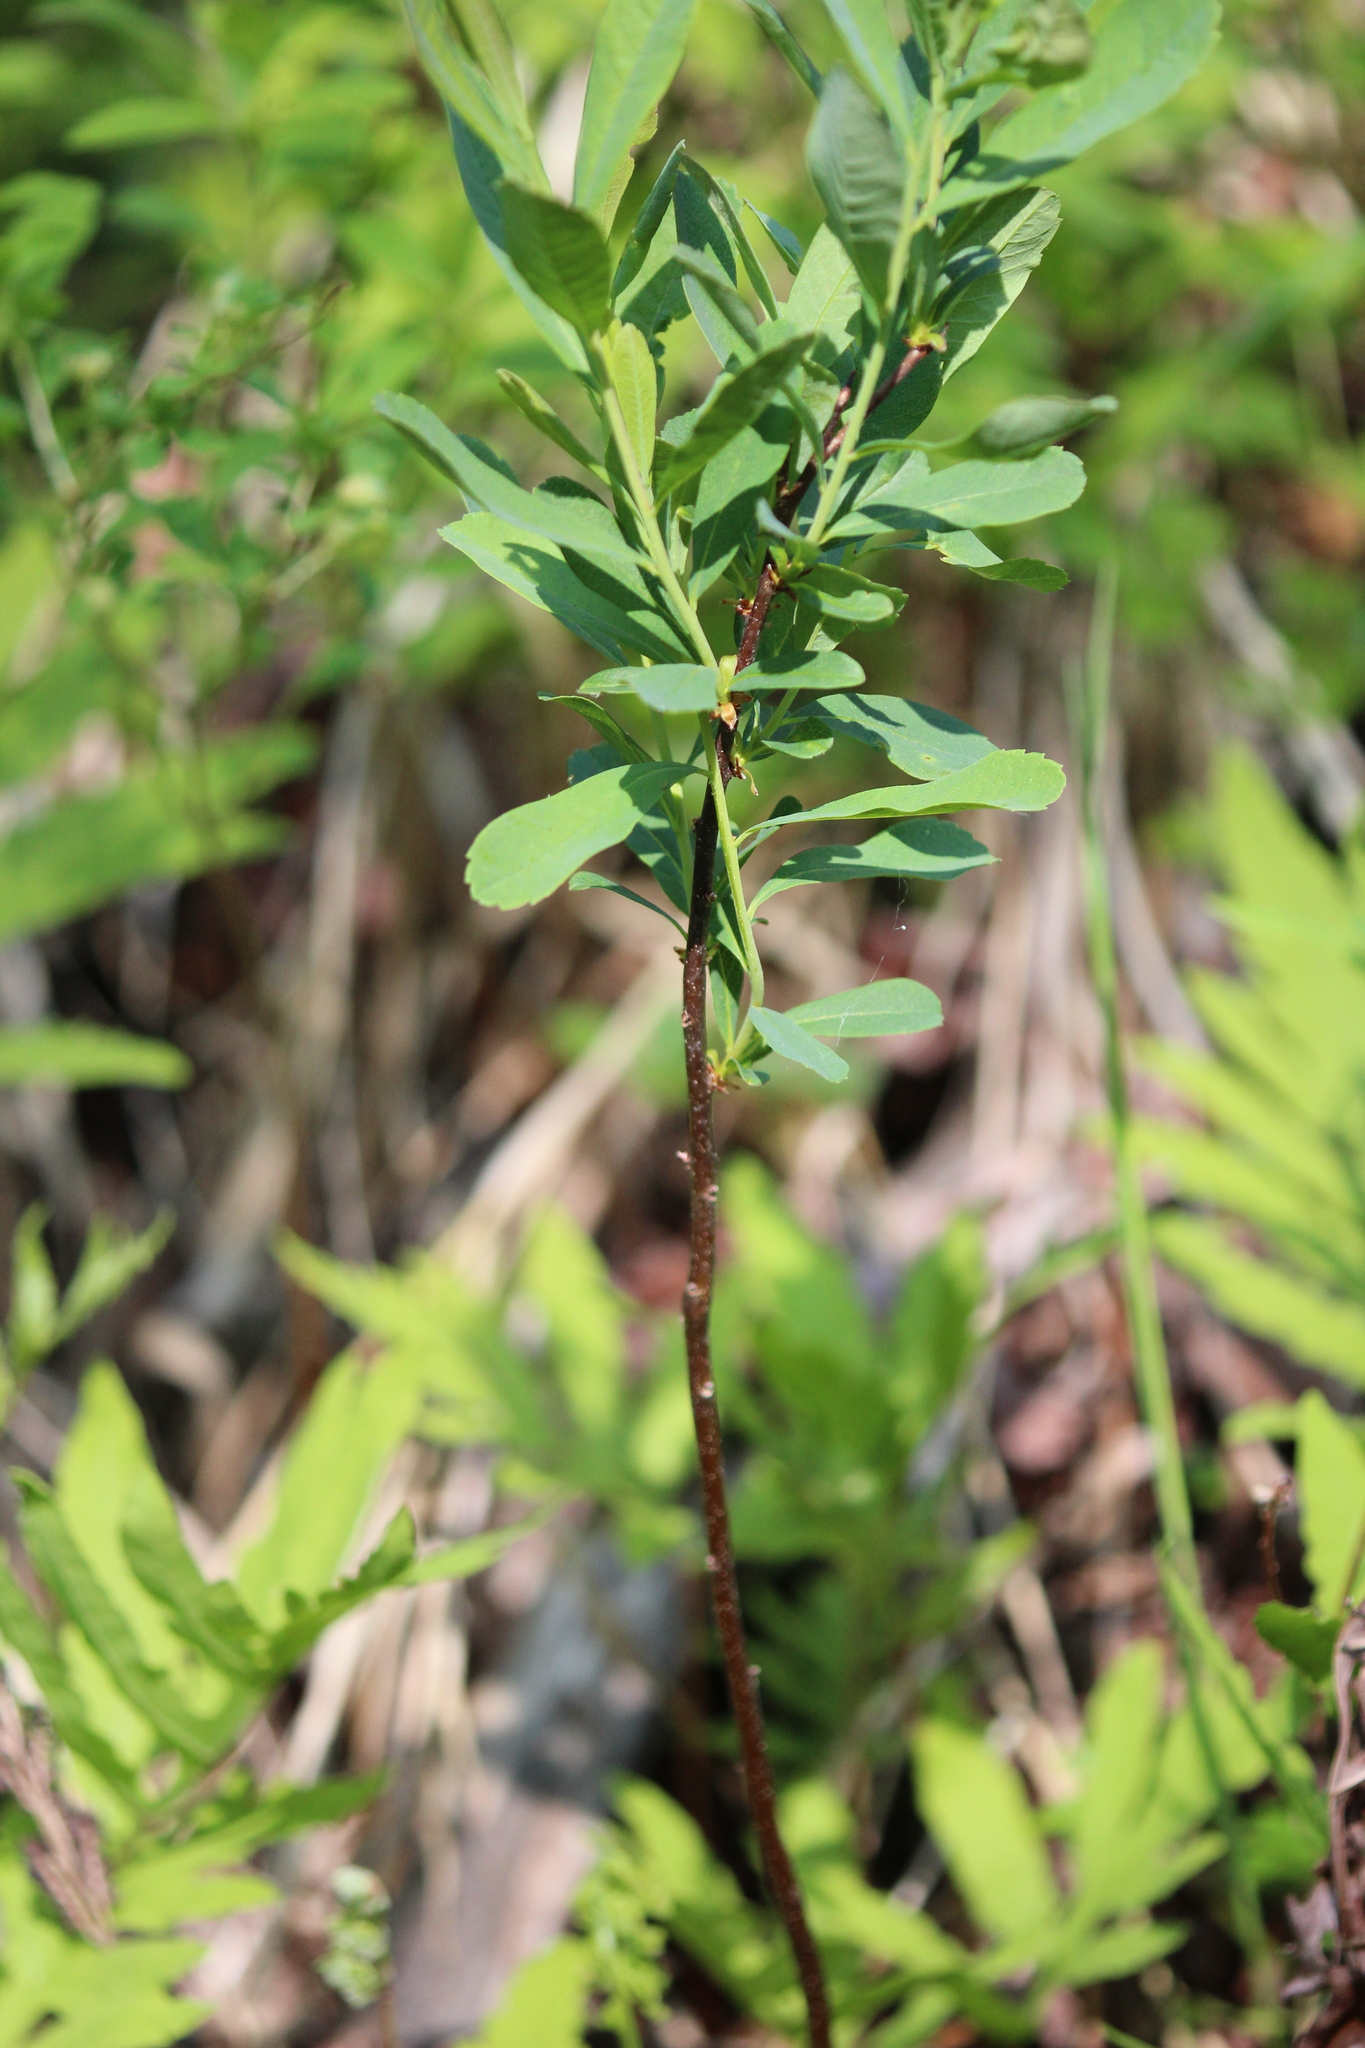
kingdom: Plantae
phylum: Tracheophyta
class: Magnoliopsida
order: Fagales
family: Myricaceae
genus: Myrica
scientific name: Myrica gale
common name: Sweet gale
